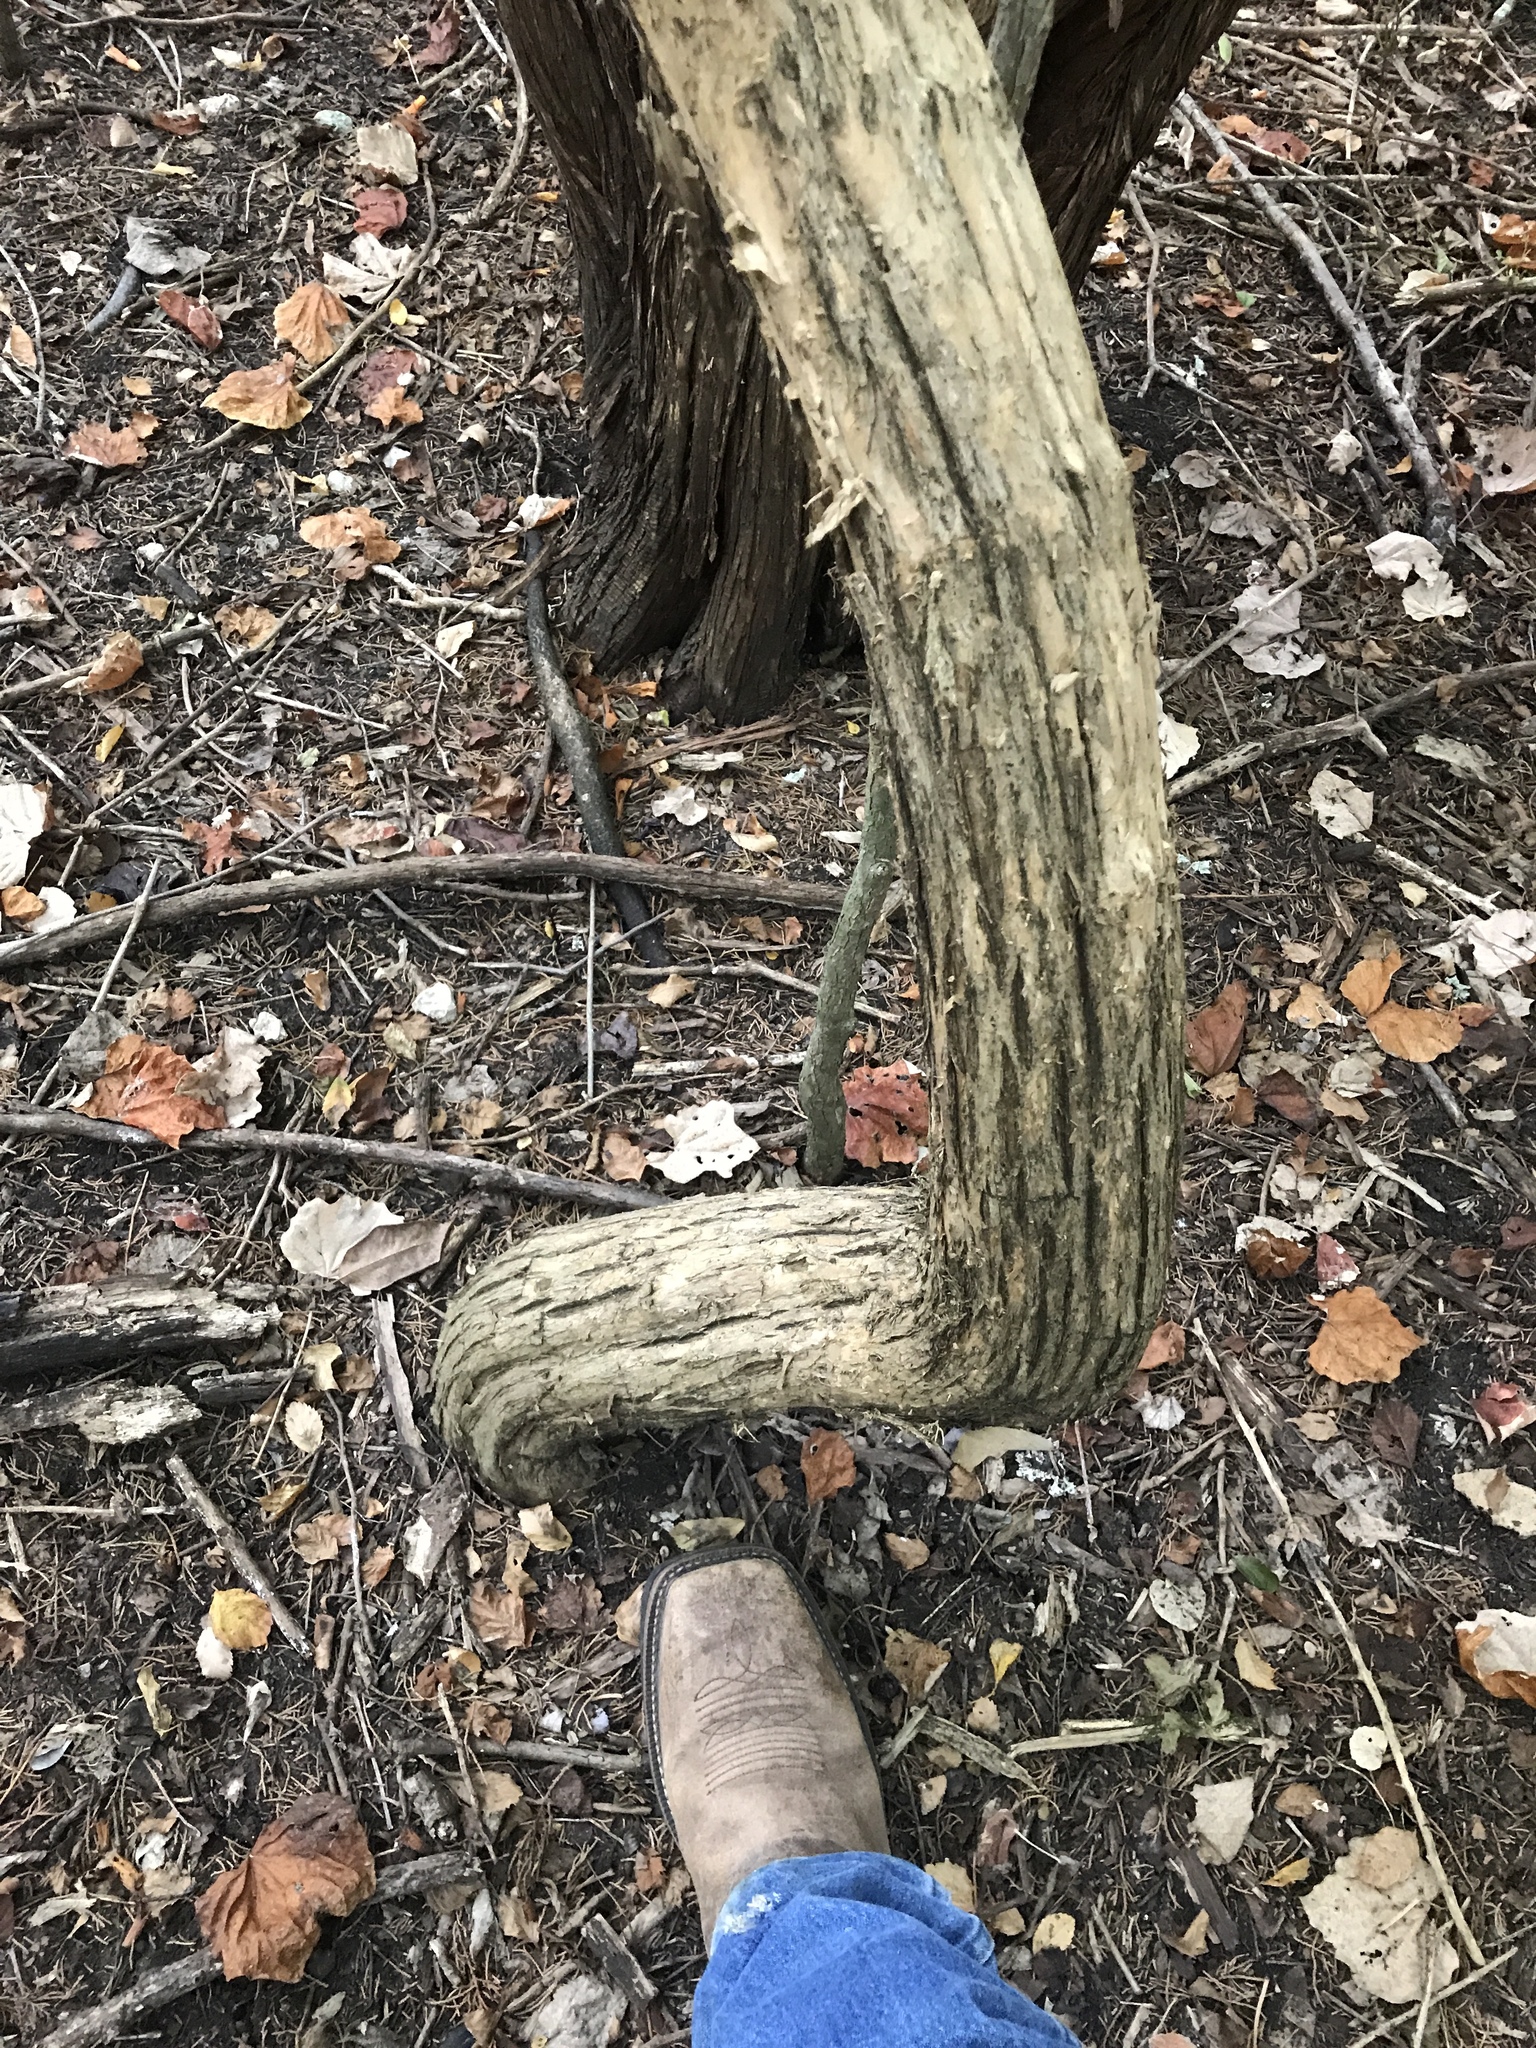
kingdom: Plantae
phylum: Tracheophyta
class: Magnoliopsida
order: Lamiales
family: Bignoniaceae
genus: Campsis
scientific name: Campsis radicans
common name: Trumpet-creeper
